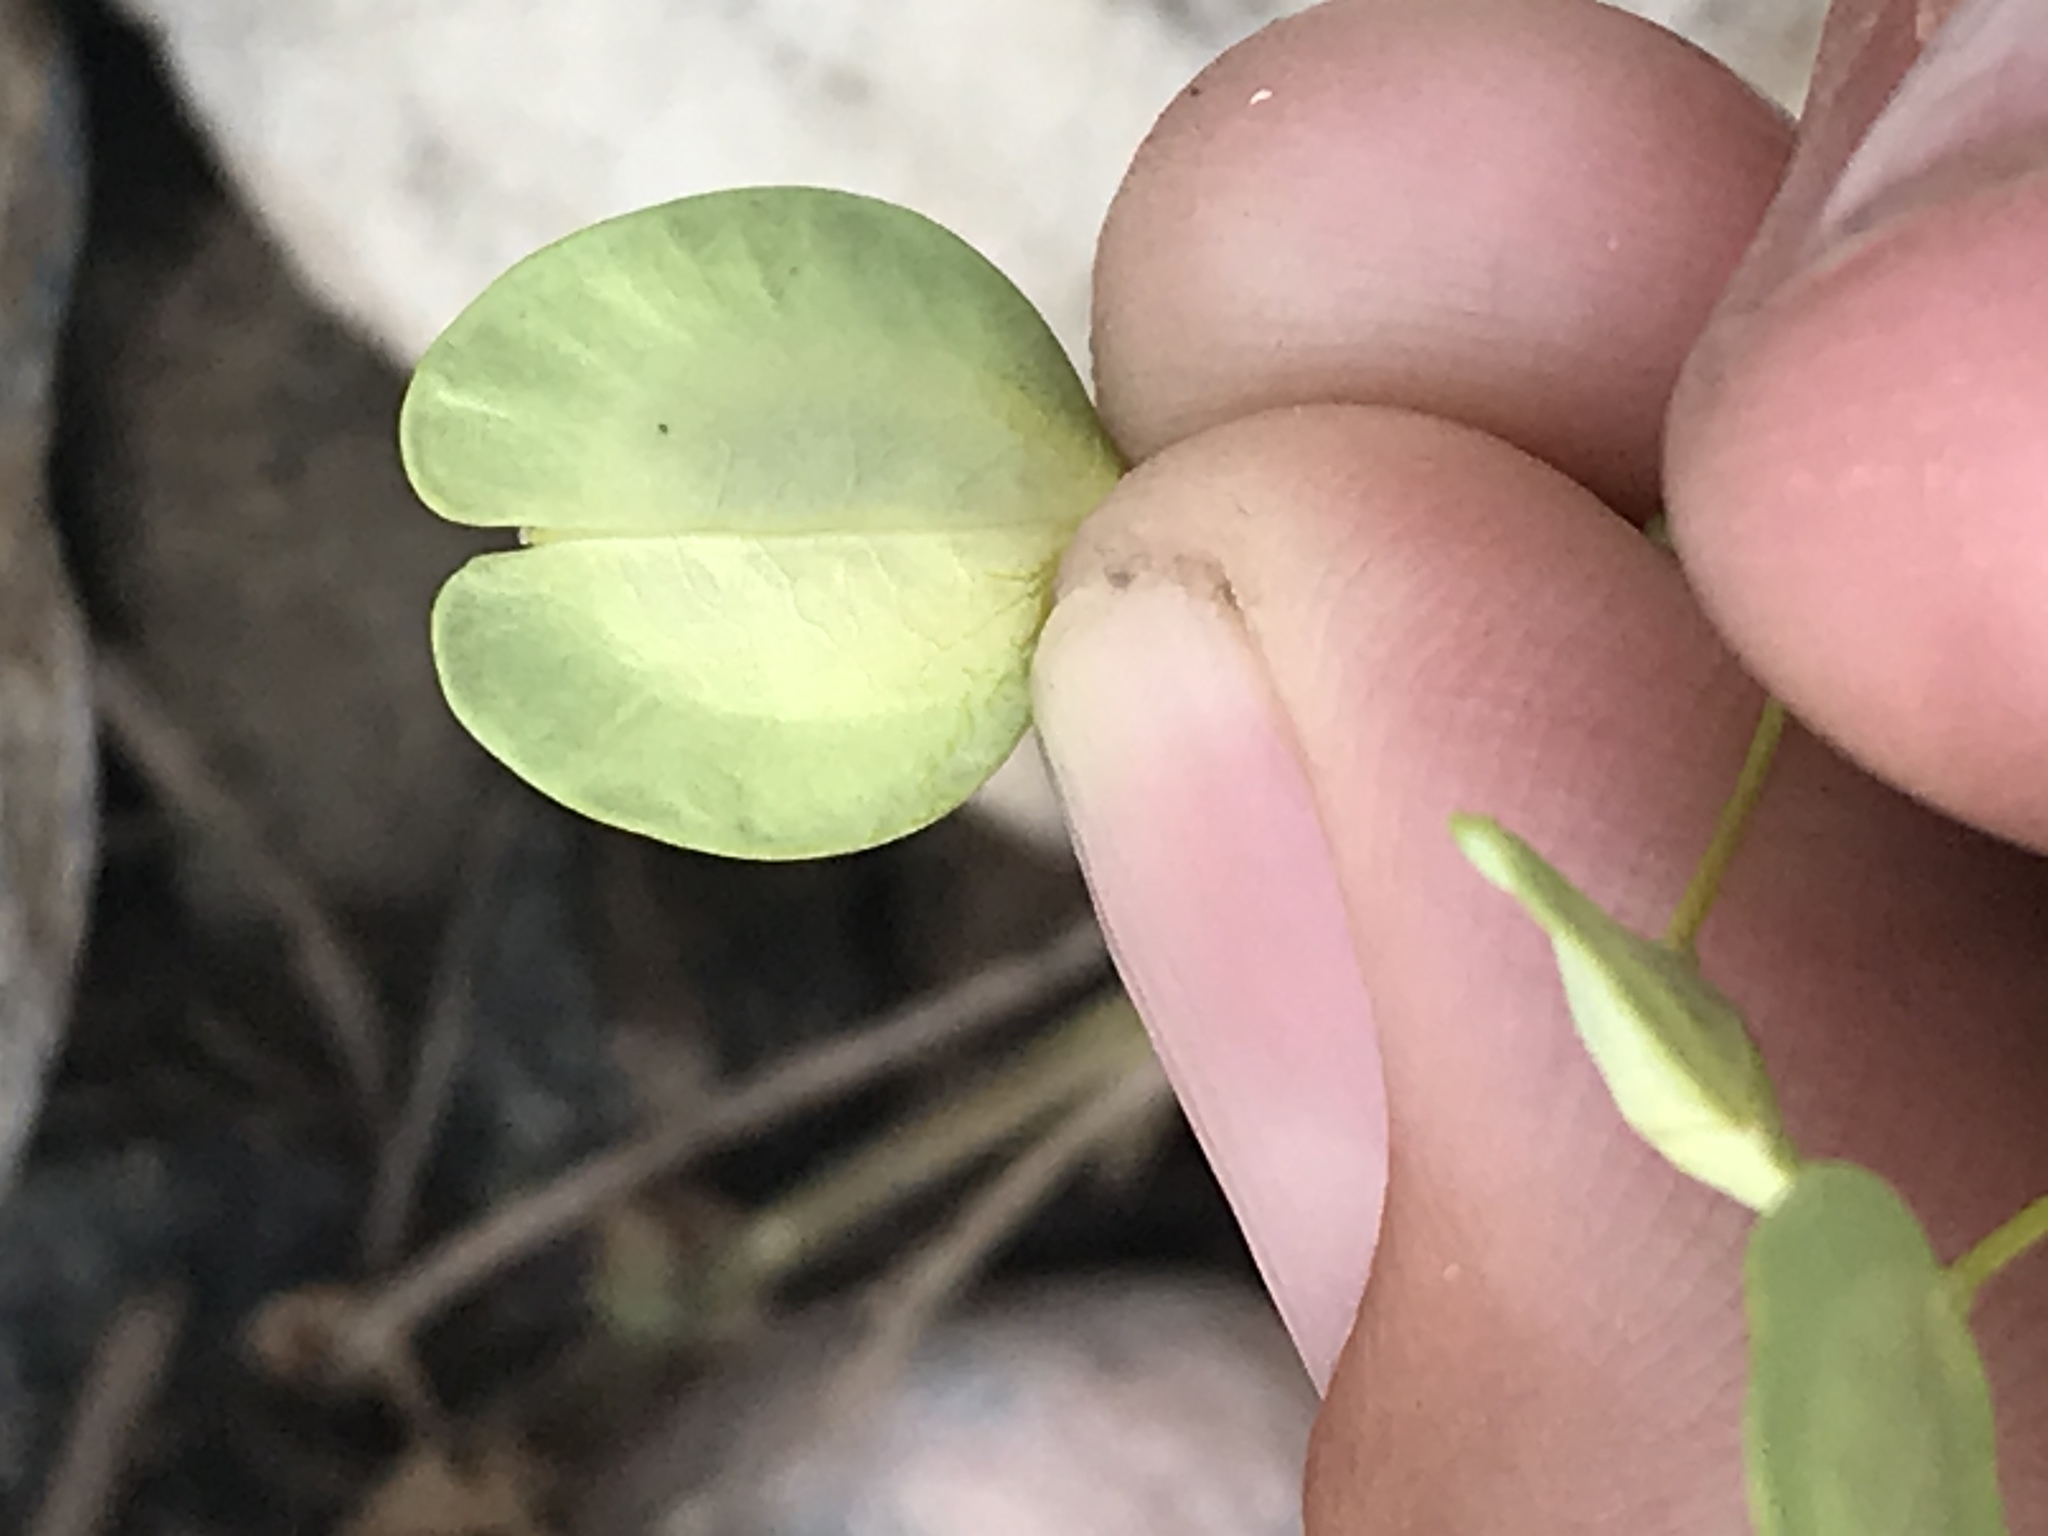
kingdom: Plantae
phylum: Tracheophyta
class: Magnoliopsida
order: Brassicales
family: Brassicaceae
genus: Thlaspi
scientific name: Thlaspi arvense
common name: Field pennycress
